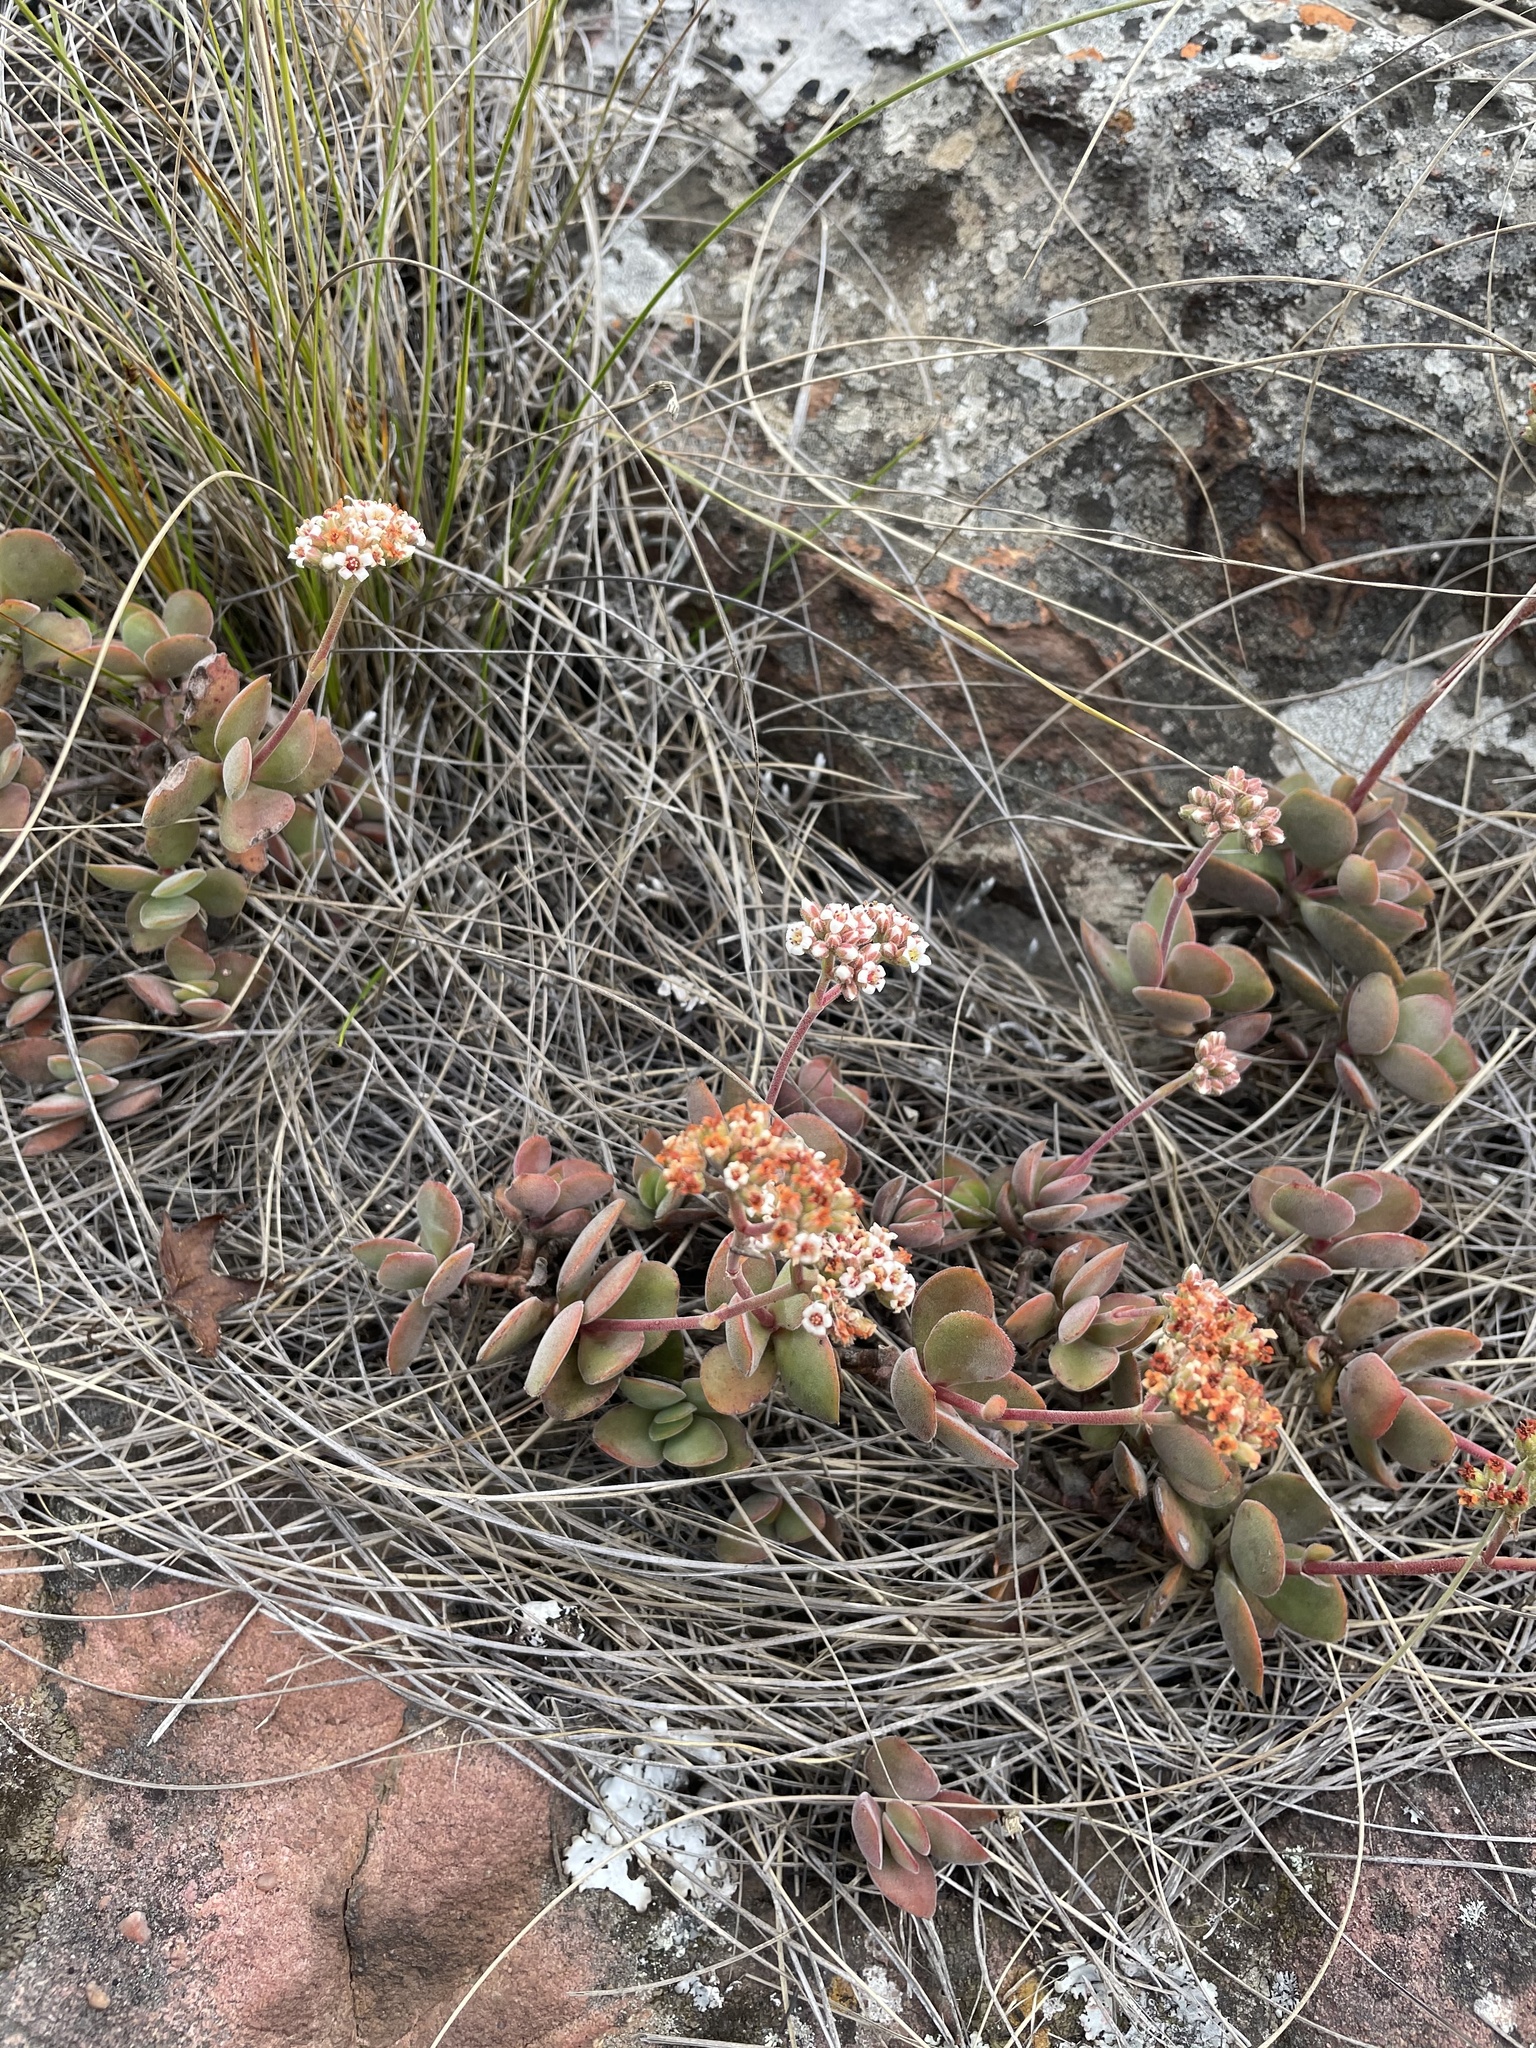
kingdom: Plantae
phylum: Tracheophyta
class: Magnoliopsida
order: Saxifragales
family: Crassulaceae
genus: Crassula
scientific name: Crassula globularioides
